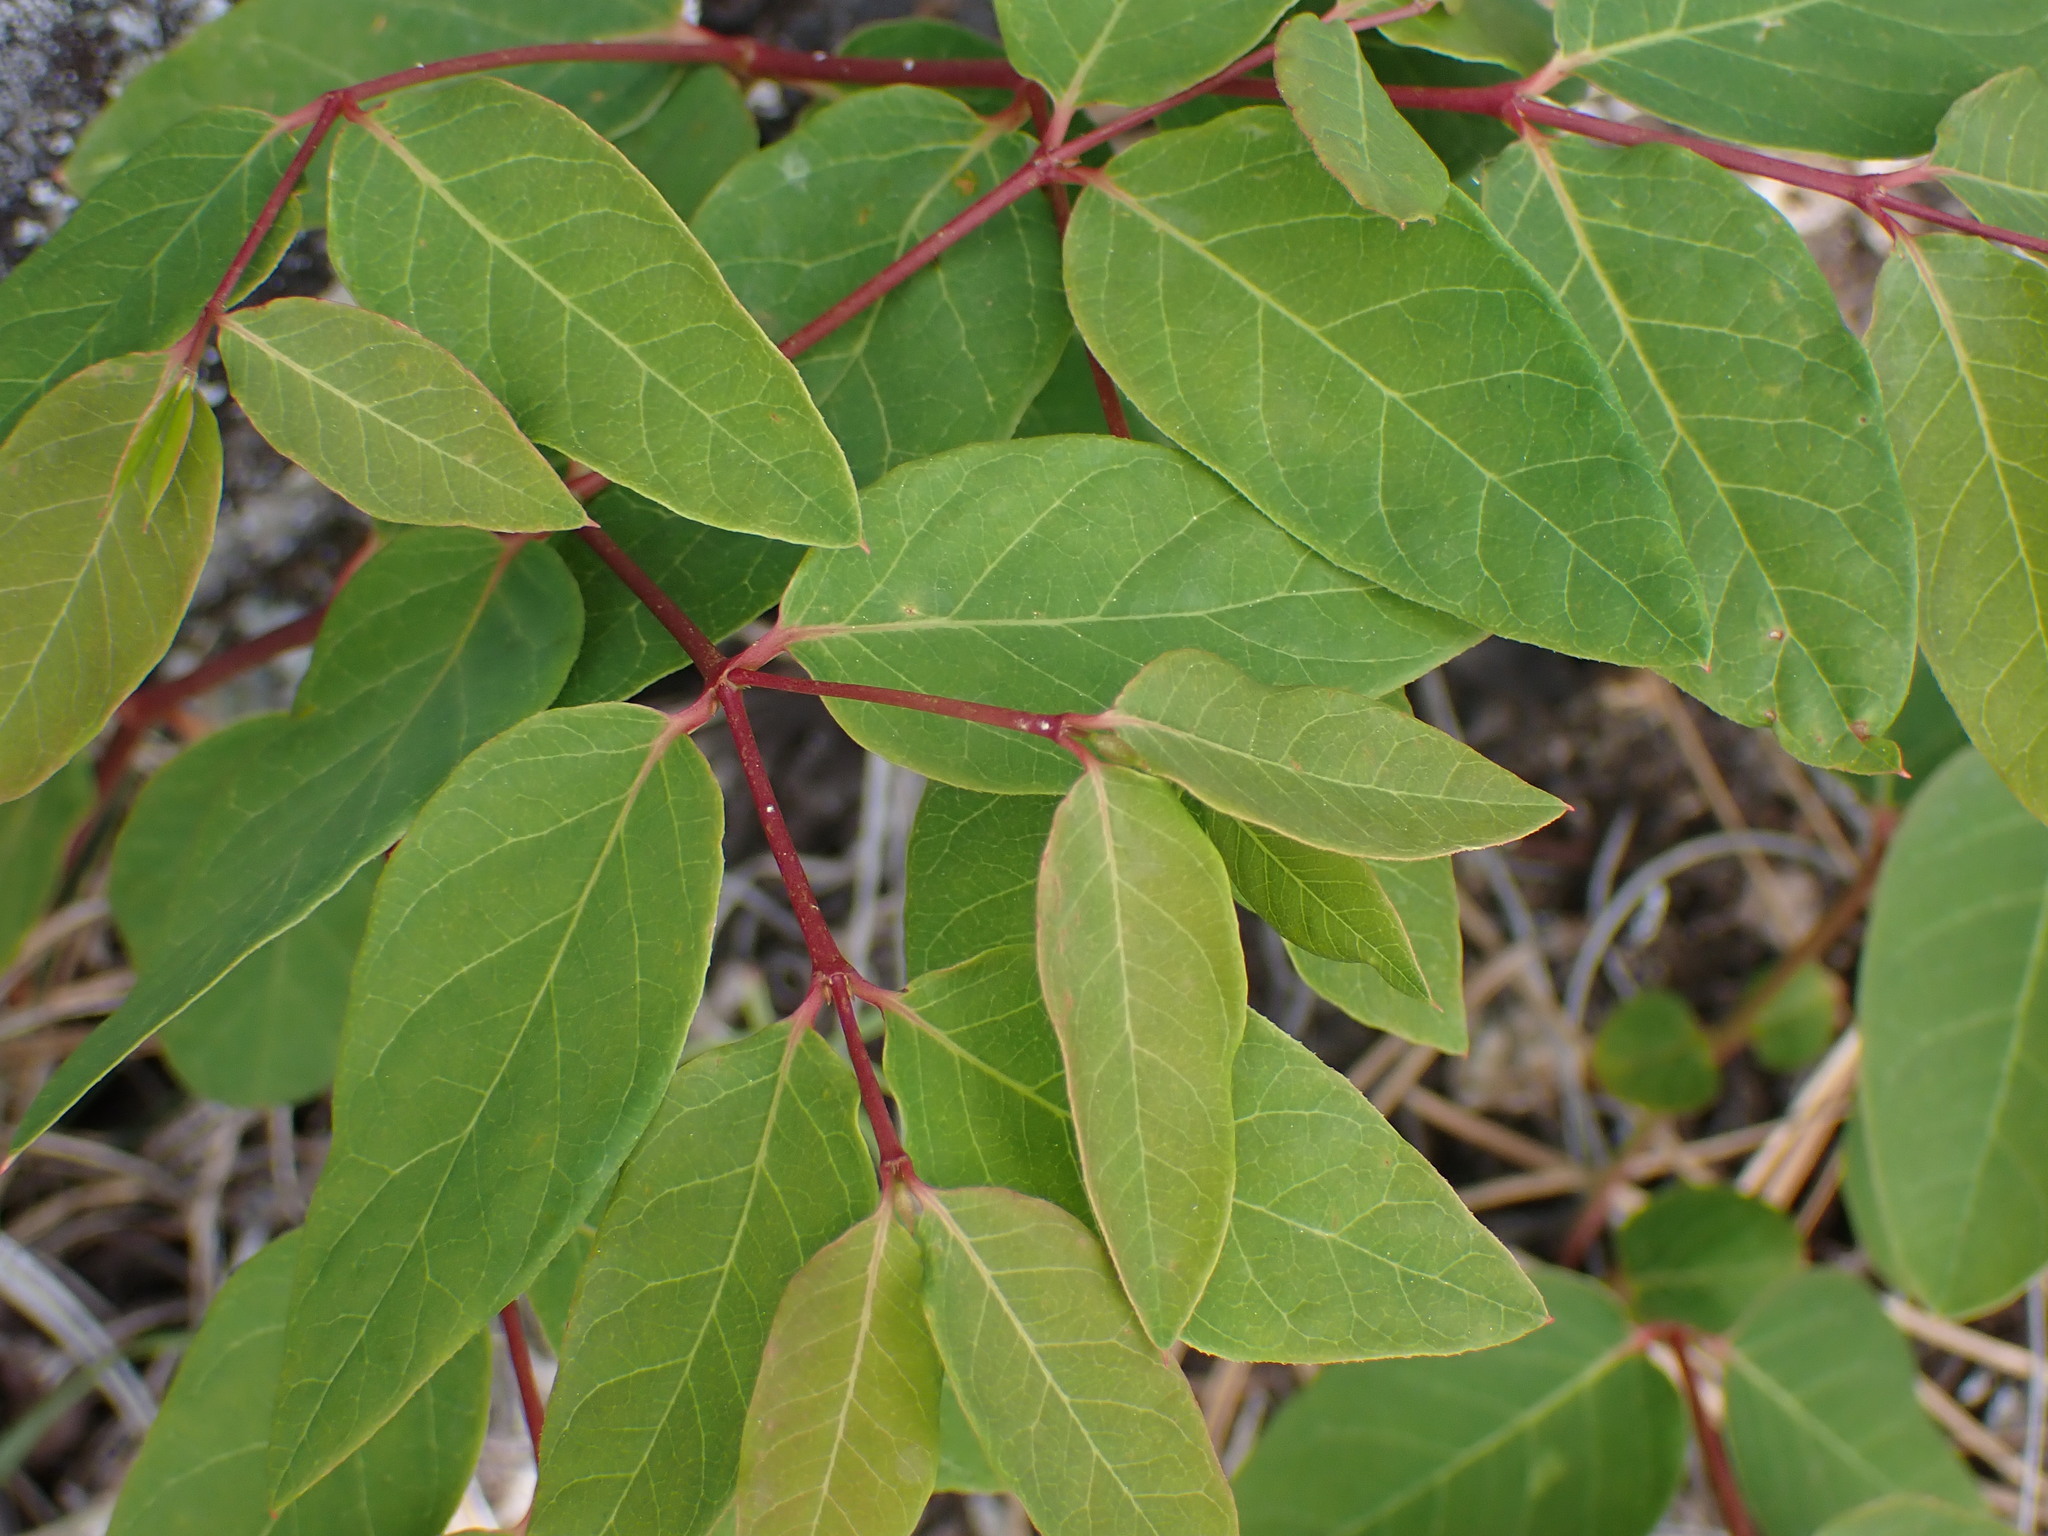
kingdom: Plantae
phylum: Tracheophyta
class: Magnoliopsida
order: Gentianales
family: Apocynaceae
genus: Apocynum
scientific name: Apocynum androsaemifolium
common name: Spreading dogbane
